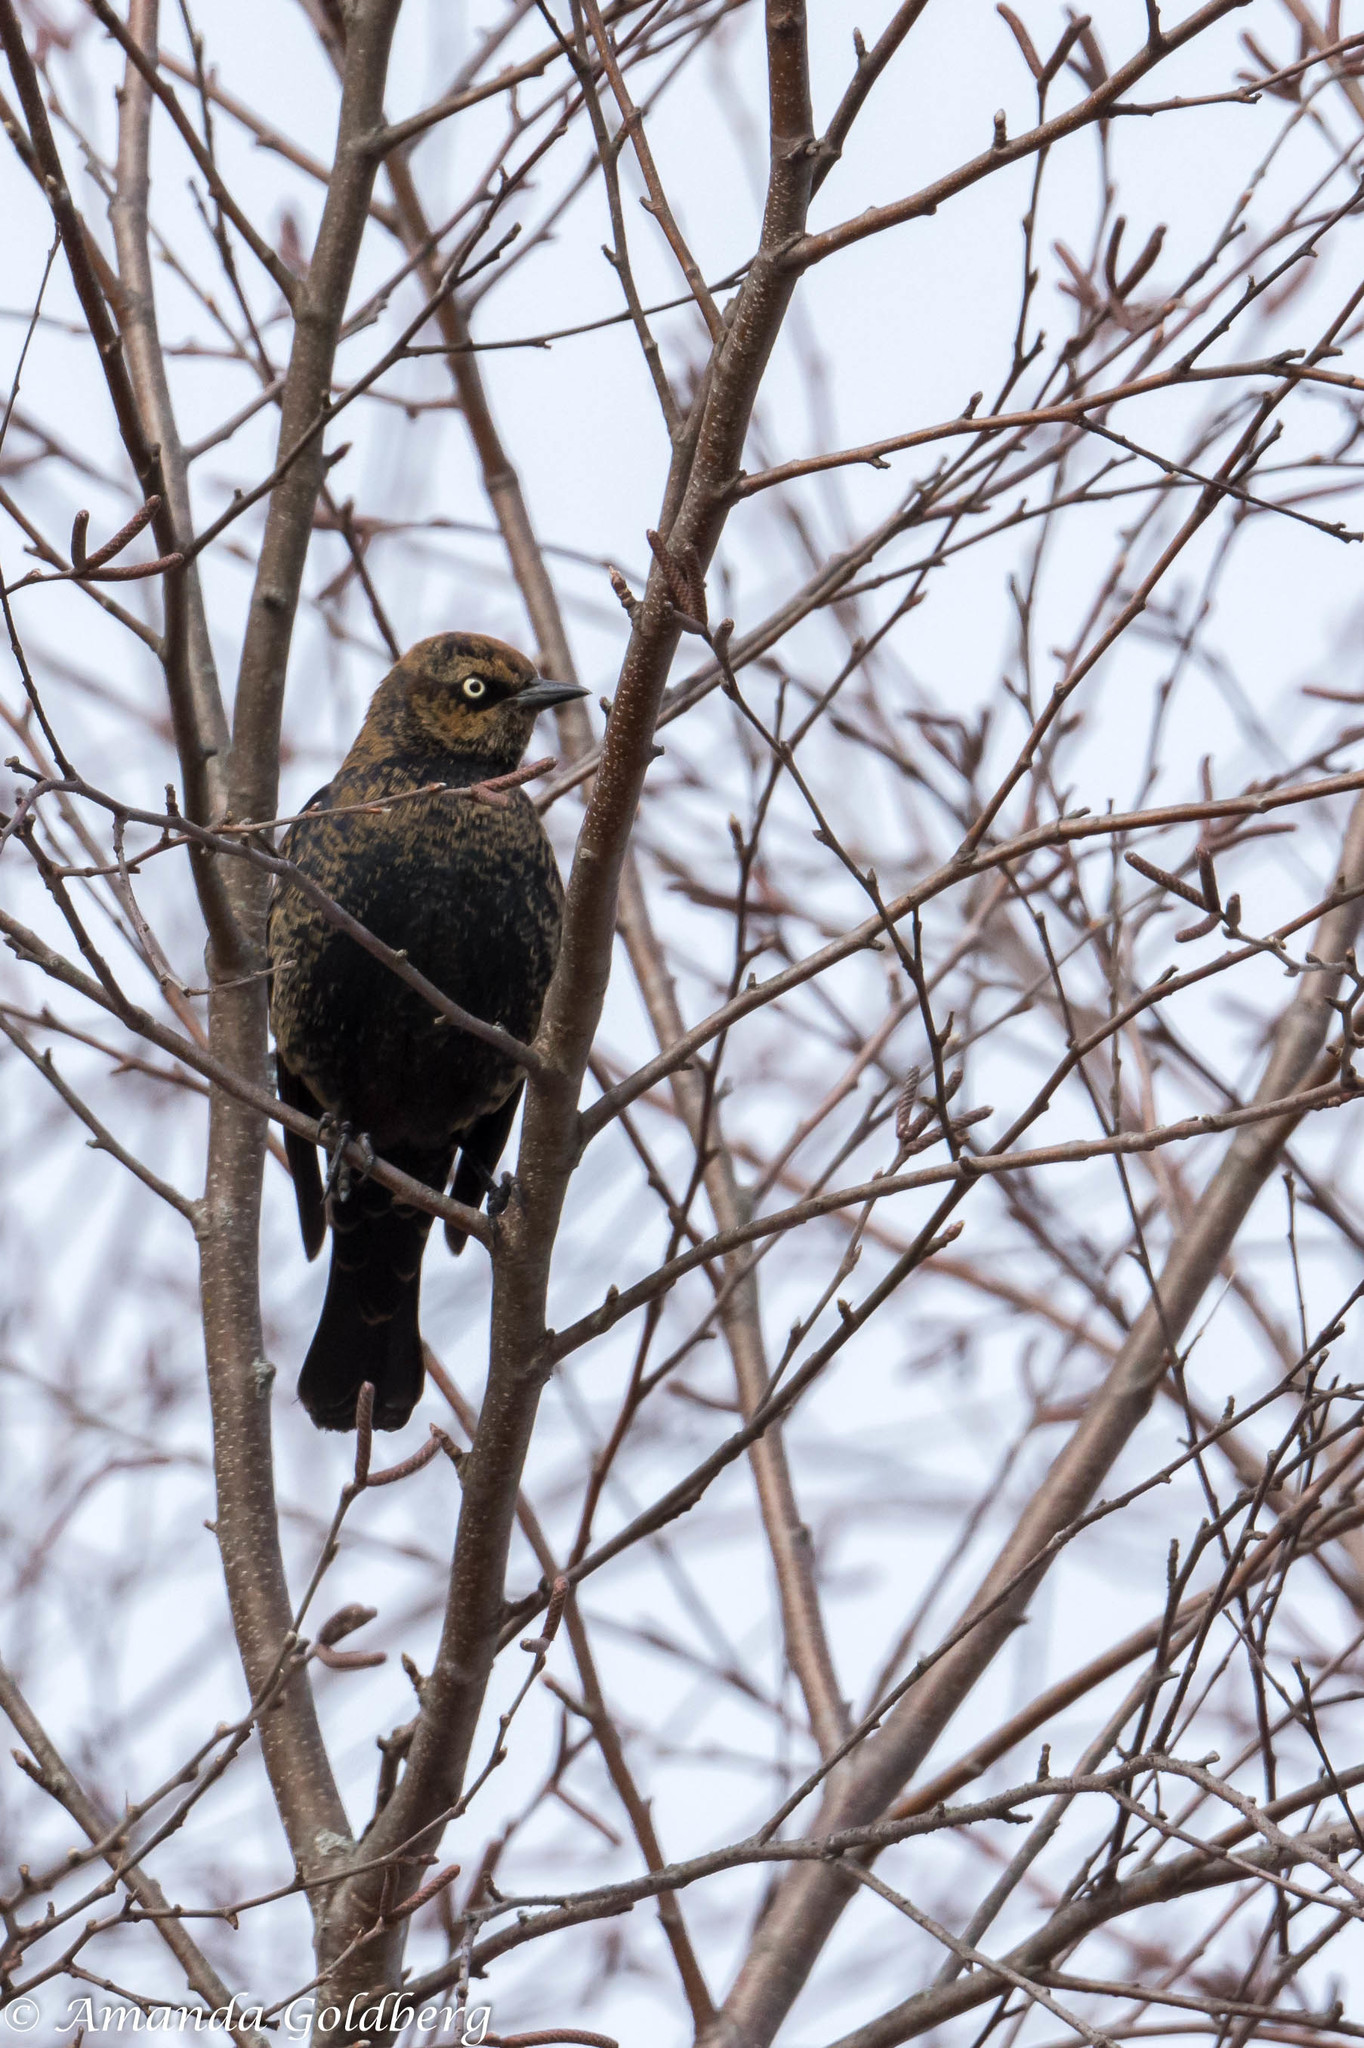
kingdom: Animalia
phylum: Chordata
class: Aves
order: Passeriformes
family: Icteridae
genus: Euphagus
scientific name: Euphagus carolinus
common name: Rusty blackbird
